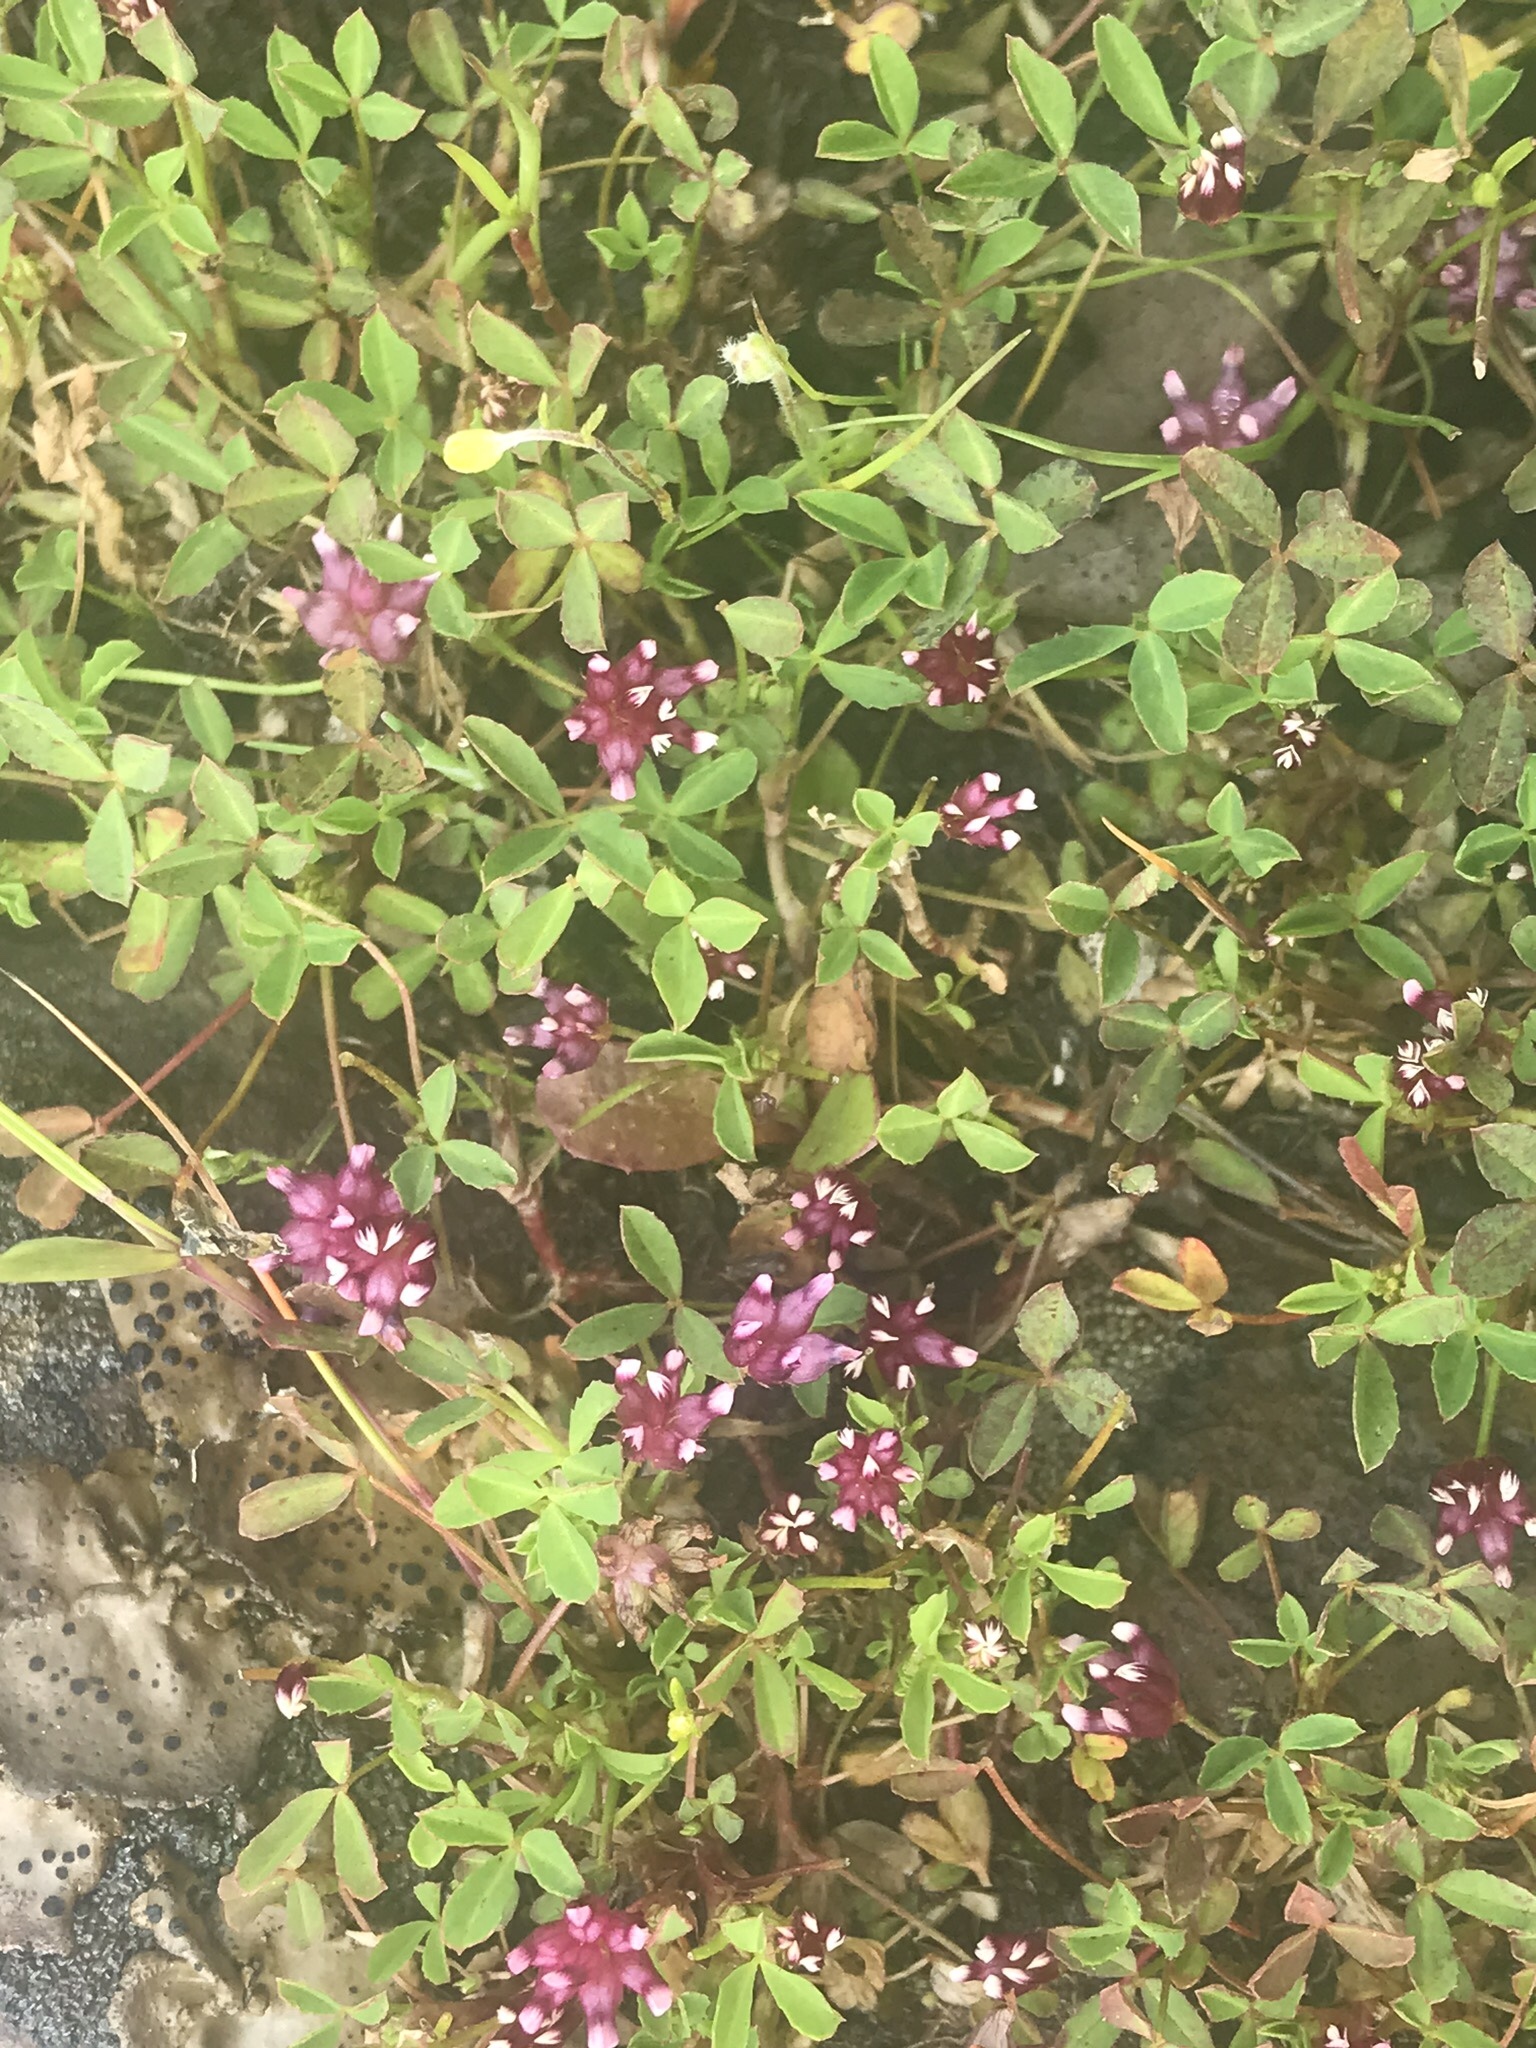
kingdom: Plantae
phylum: Tracheophyta
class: Magnoliopsida
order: Fabales
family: Fabaceae
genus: Trifolium
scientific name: Trifolium depauperatum
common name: Poverty clover
